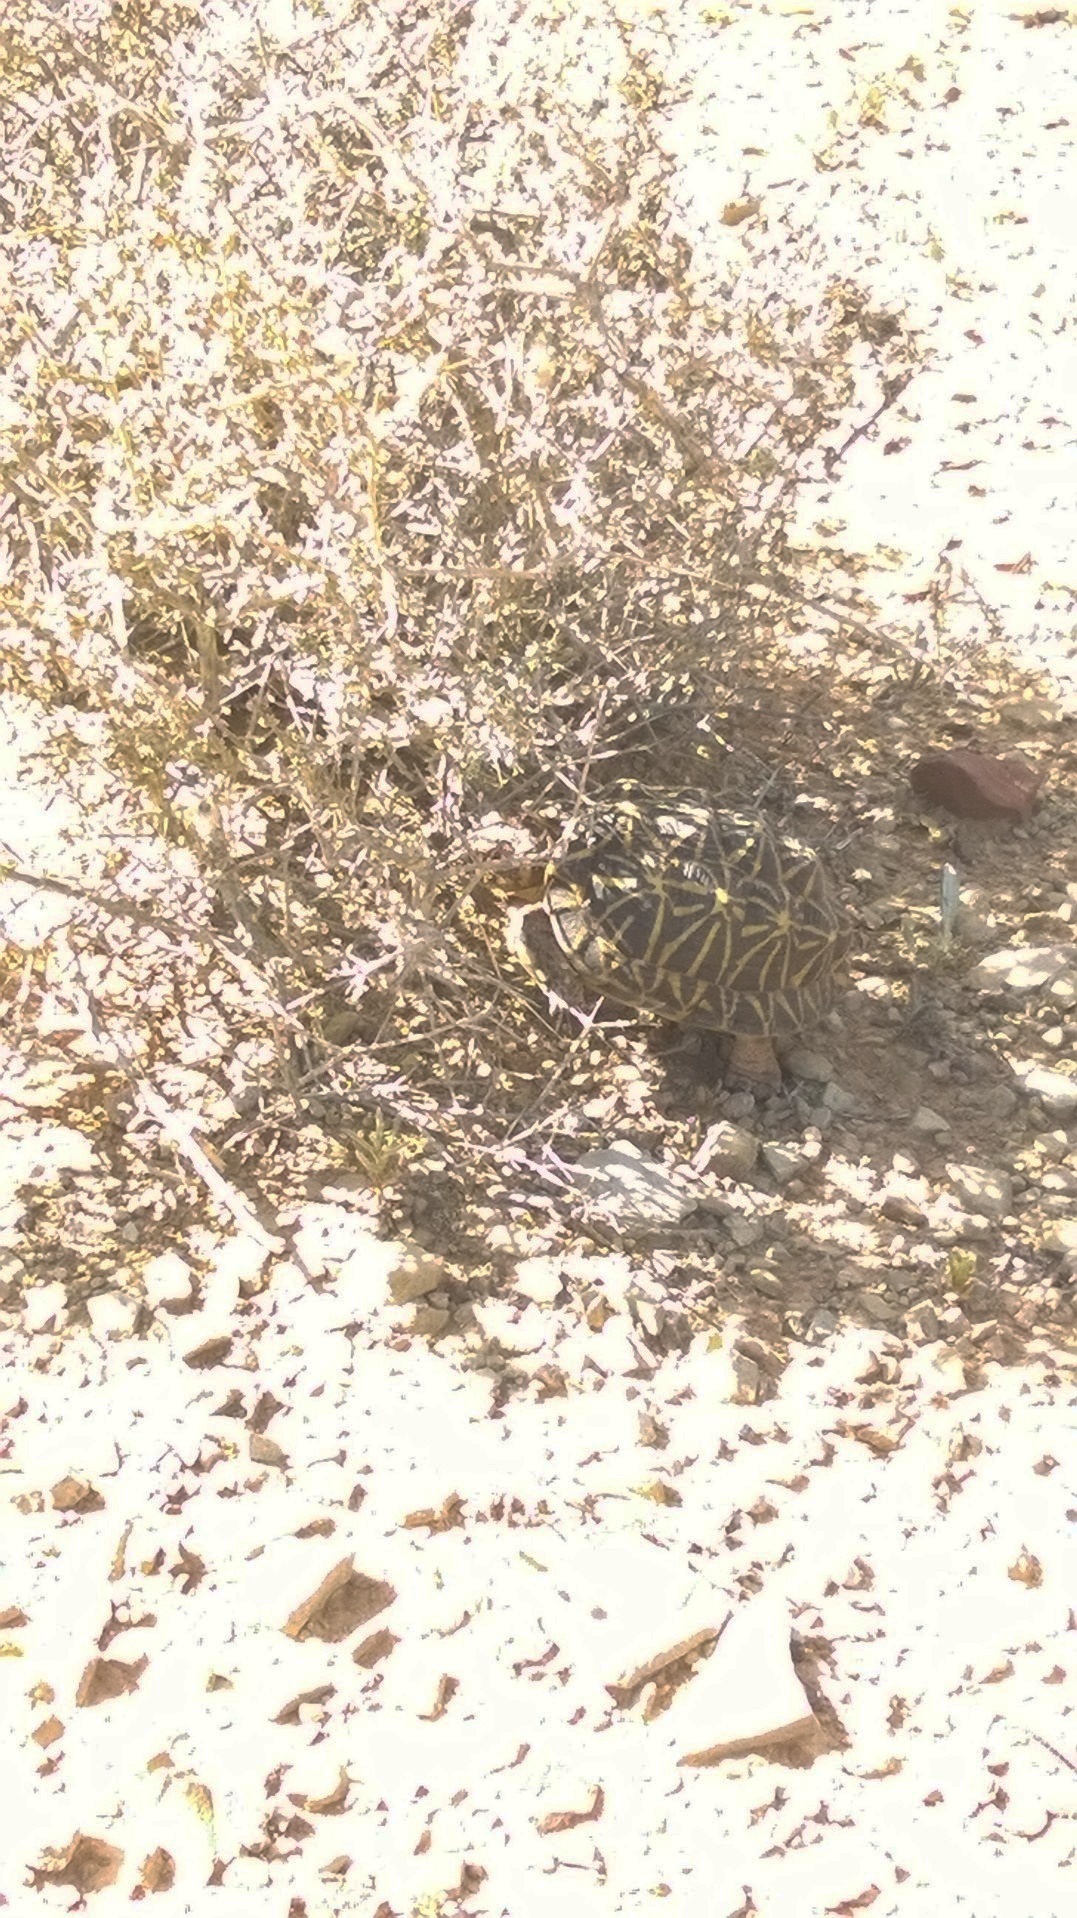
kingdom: Animalia
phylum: Chordata
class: Testudines
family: Testudinidae
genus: Psammobates
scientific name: Psammobates tentorius
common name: Tent tortoise
